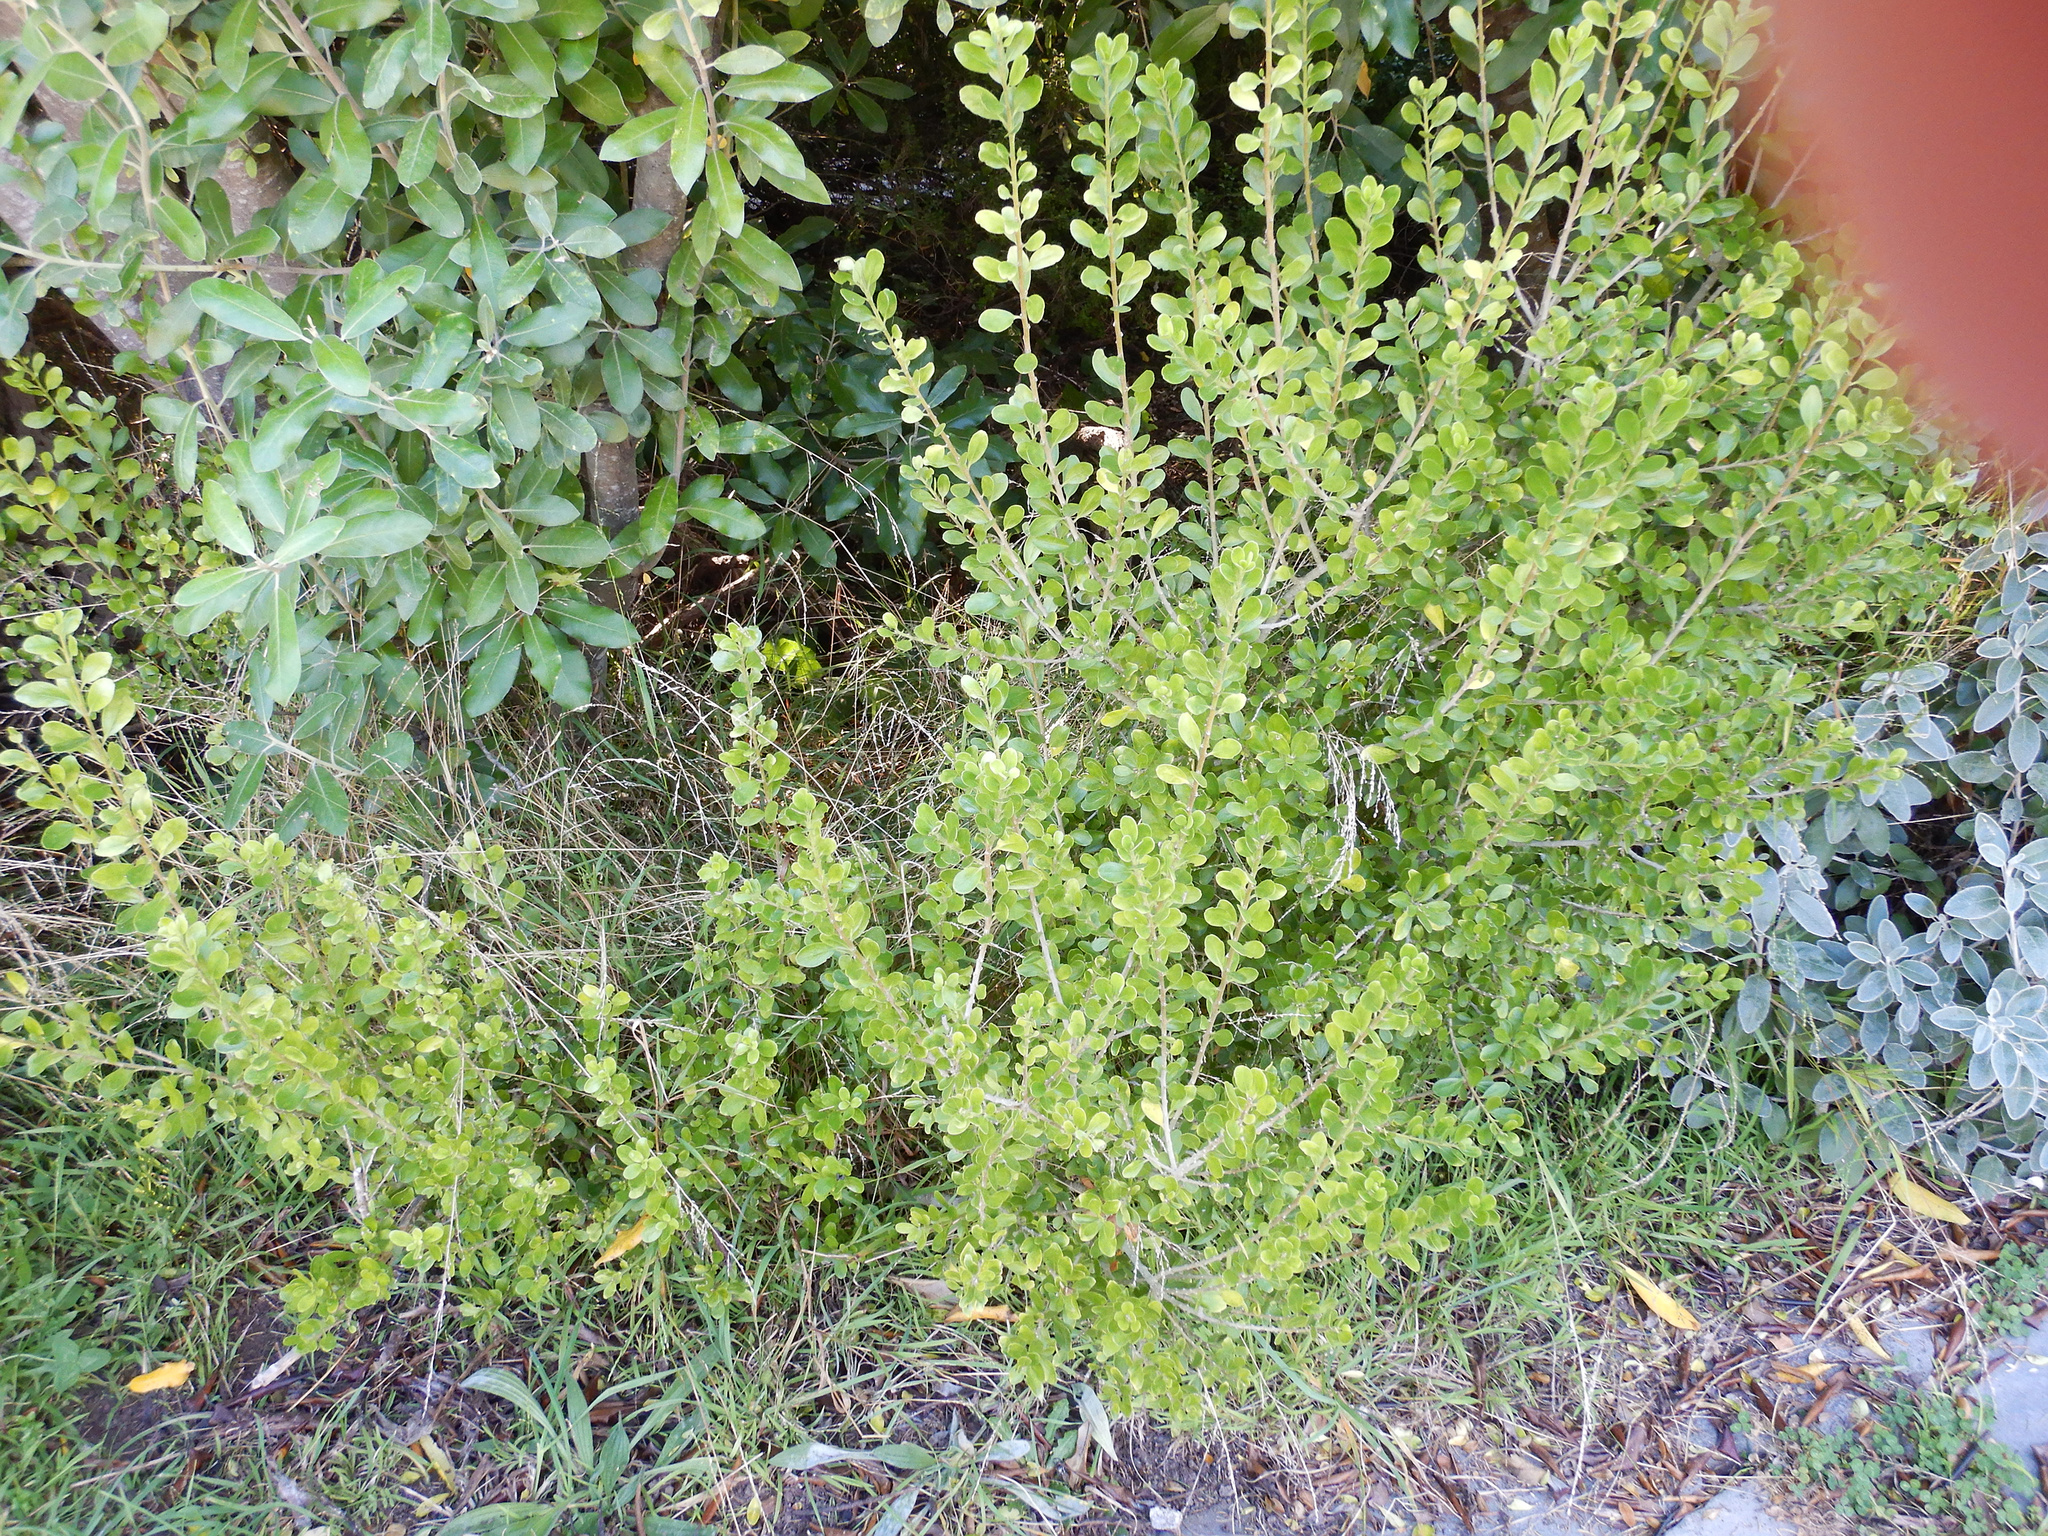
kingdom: Plantae
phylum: Tracheophyta
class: Magnoliopsida
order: Malpighiales
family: Violaceae
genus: Melicytus
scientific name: Melicytus obovatus
